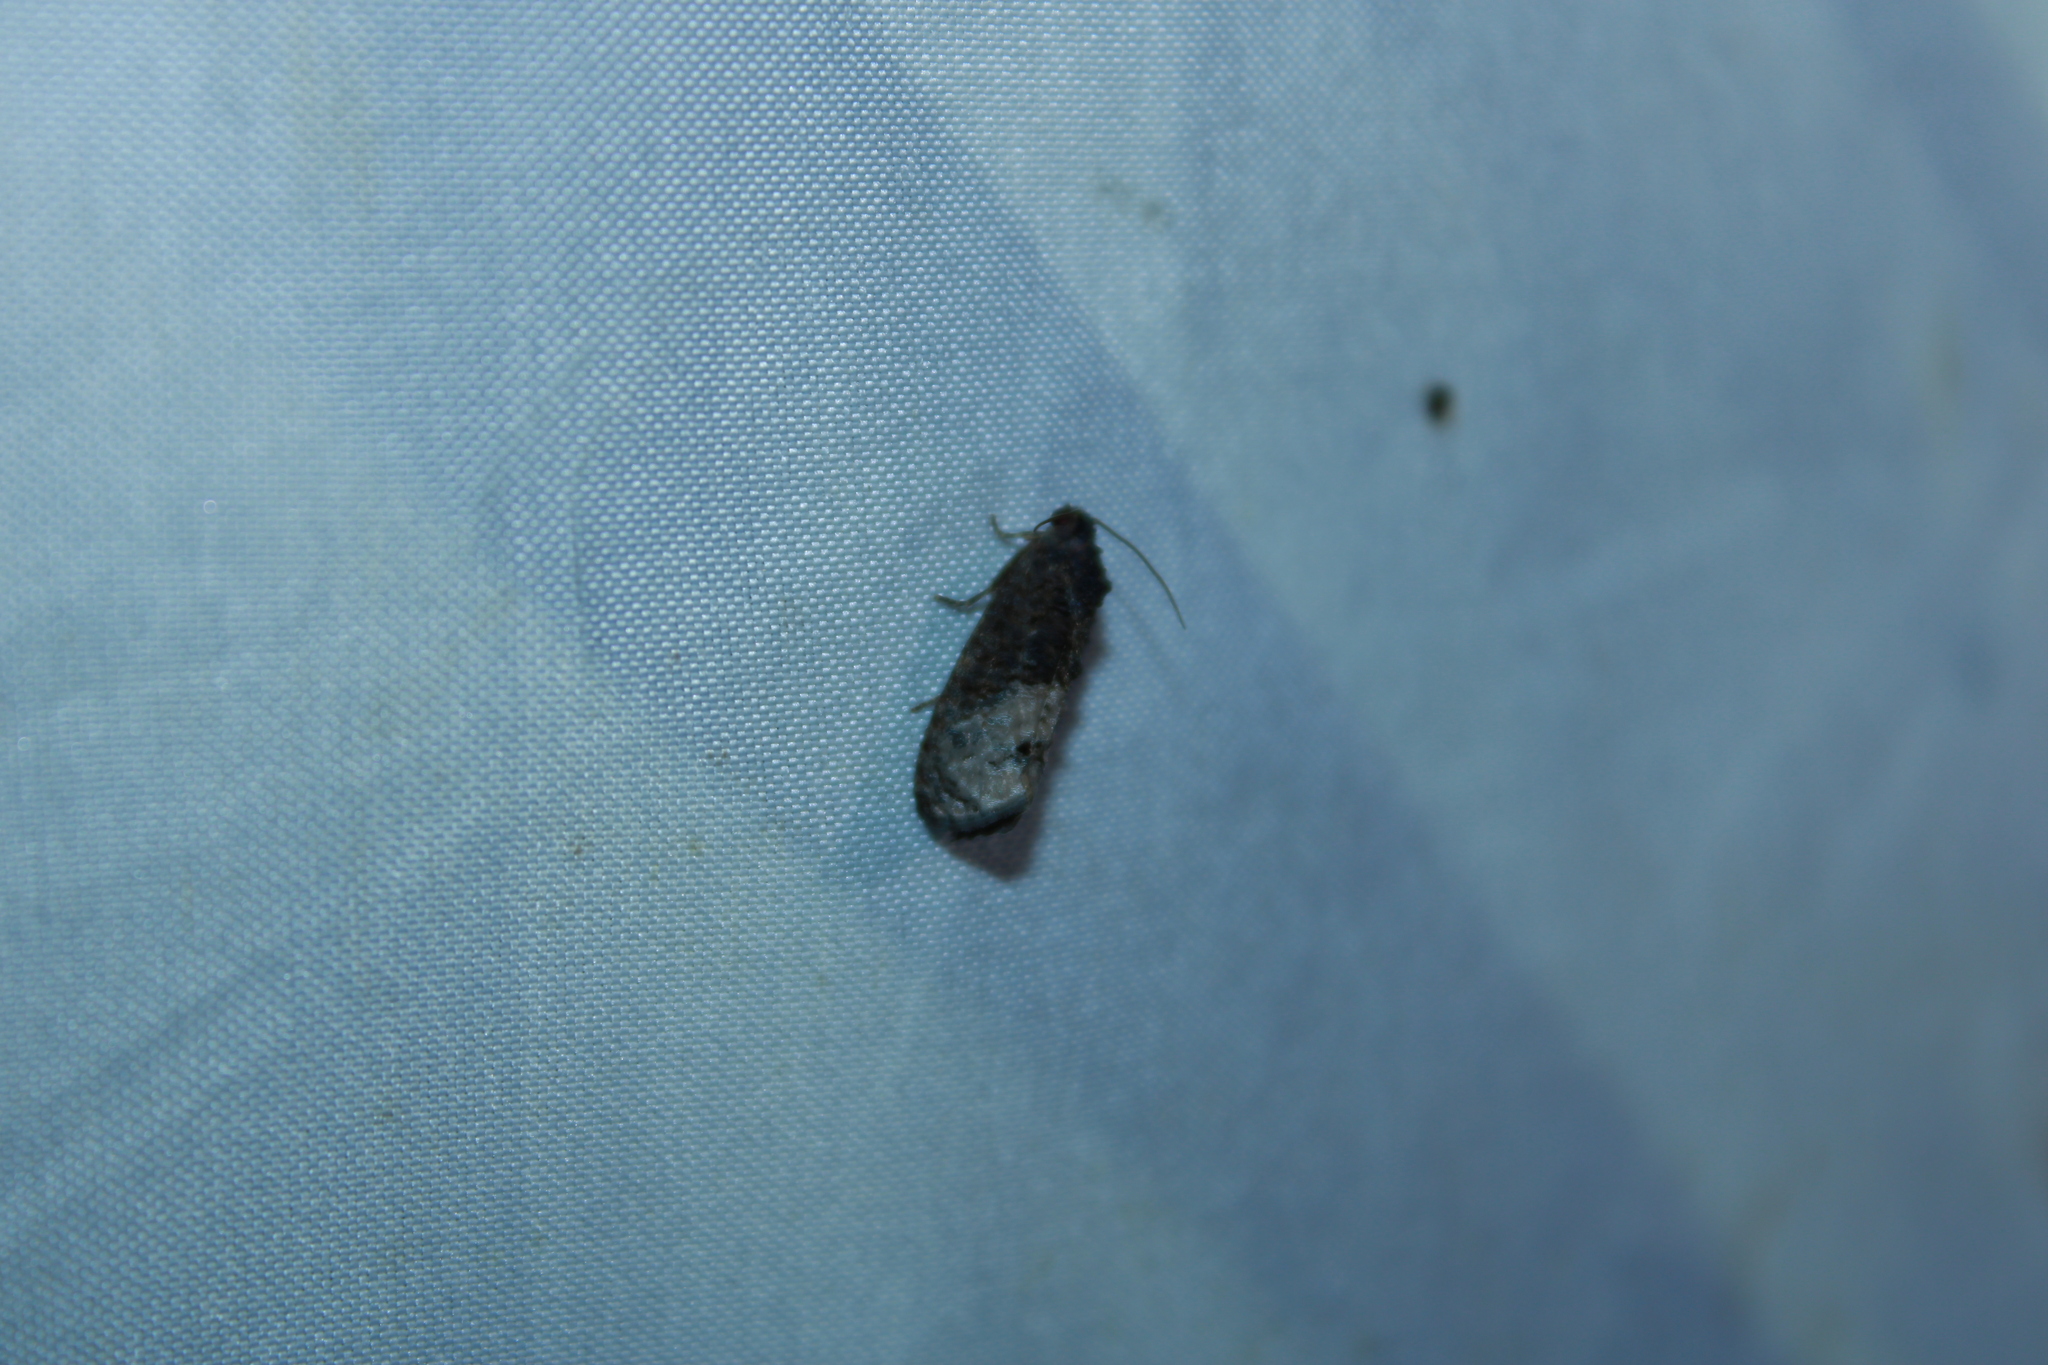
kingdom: Animalia
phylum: Arthropoda
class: Insecta
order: Lepidoptera
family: Tortricidae
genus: Ecdytolopha
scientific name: Ecdytolopha insiticiana
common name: Locust twig borer moth
